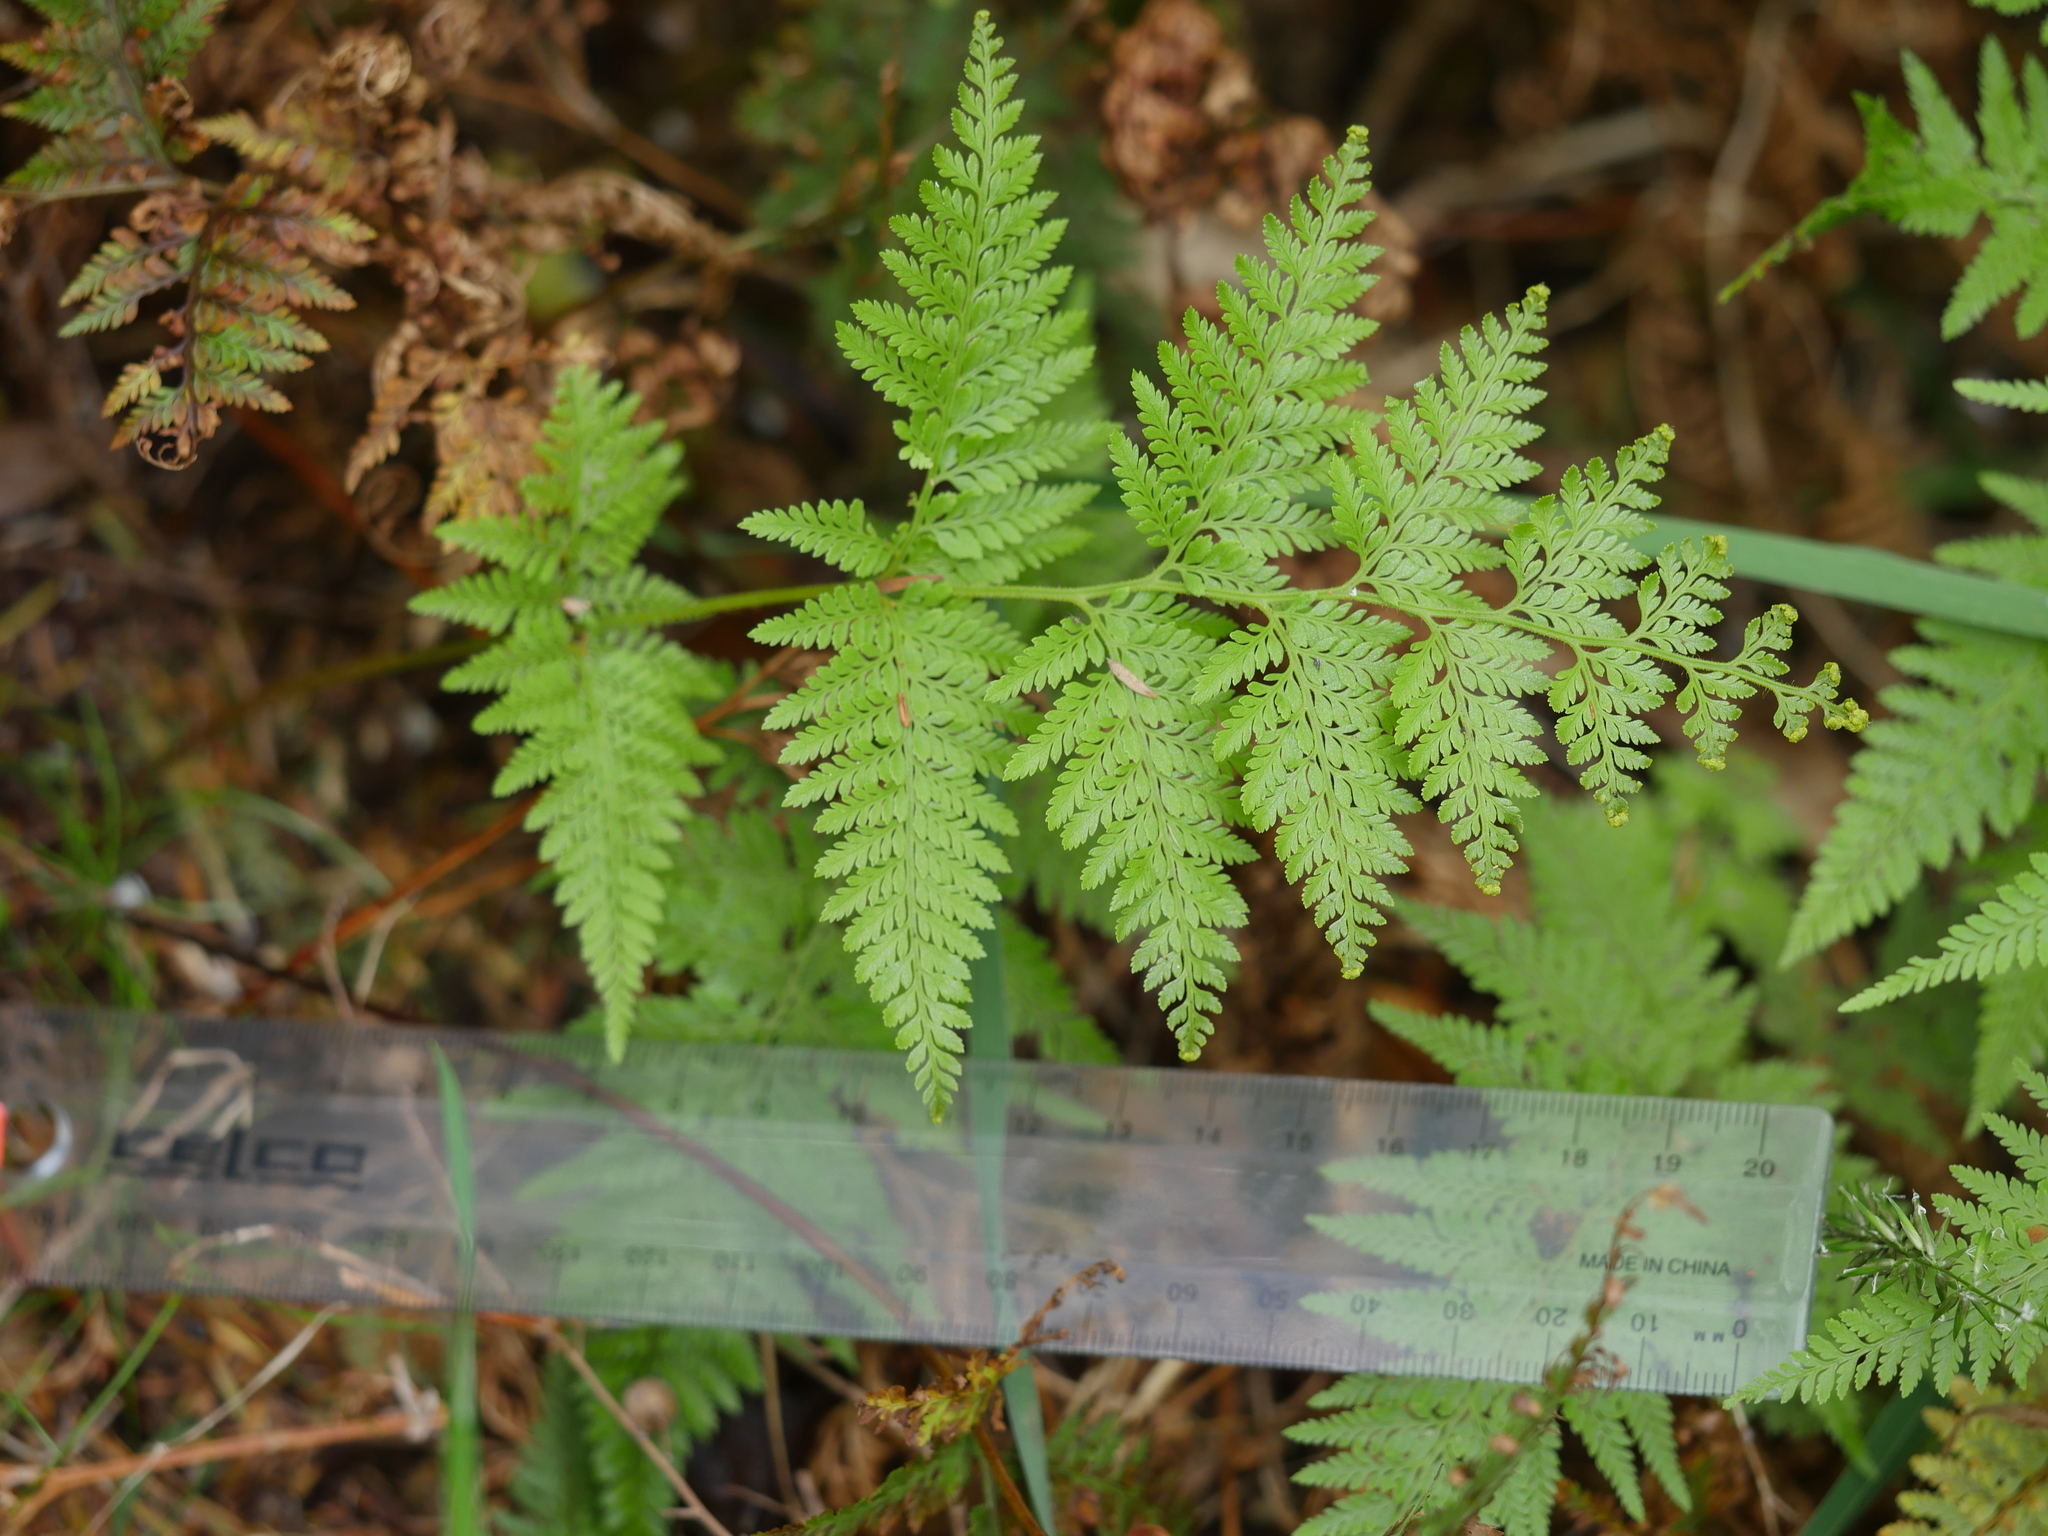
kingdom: Plantae
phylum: Tracheophyta
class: Polypodiopsida
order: Polypodiales
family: Dennstaedtiaceae
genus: Paesia
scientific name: Paesia scaberula
